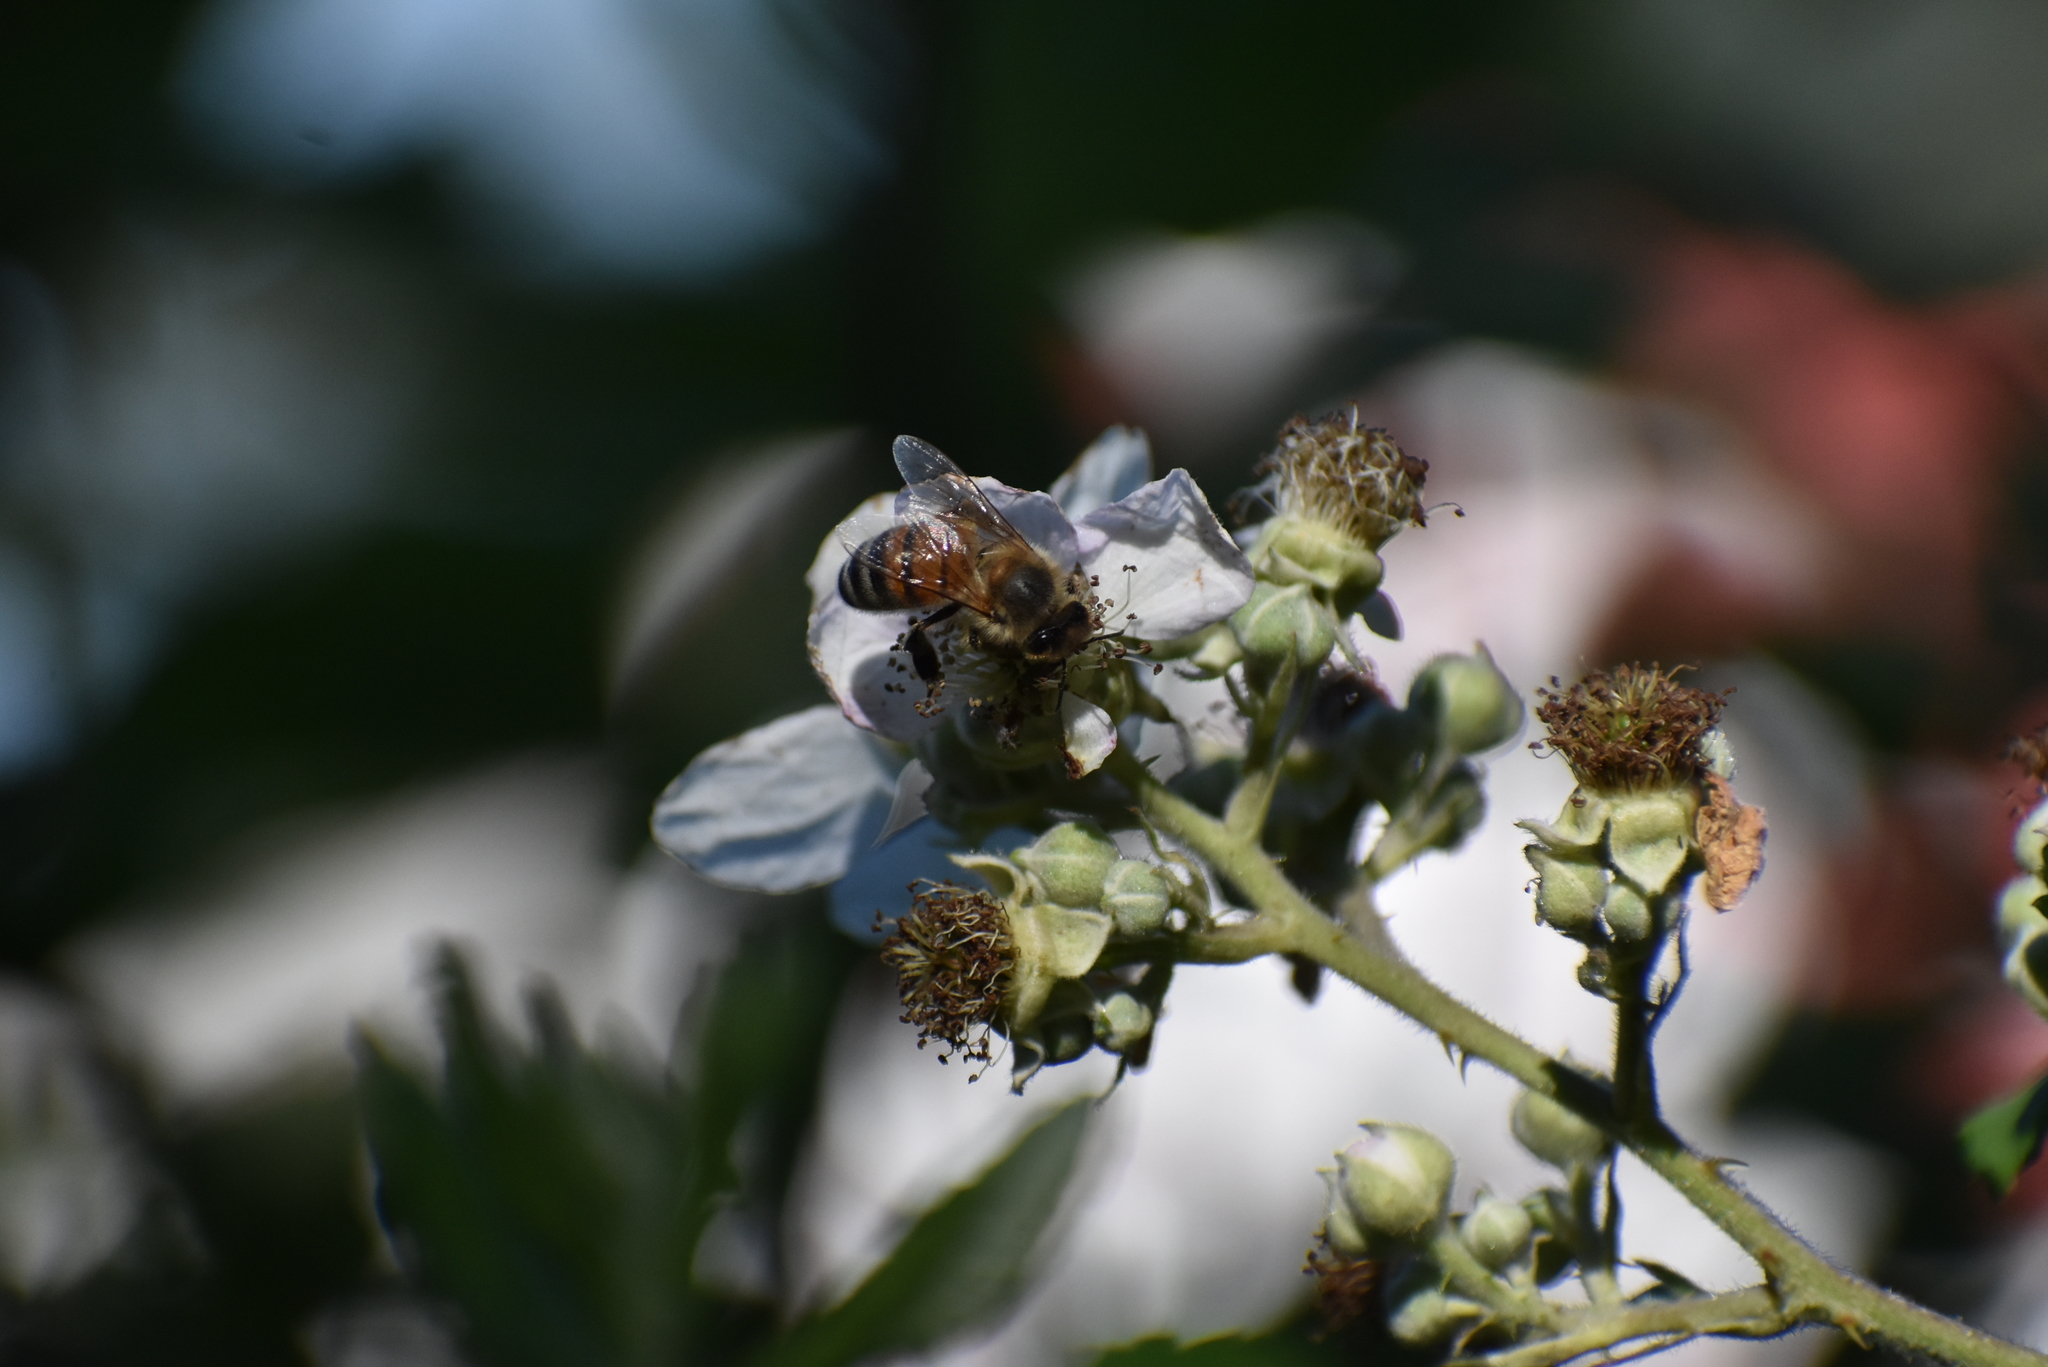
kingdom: Animalia
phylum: Arthropoda
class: Insecta
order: Hymenoptera
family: Apidae
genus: Apis
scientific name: Apis mellifera
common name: Honey bee
